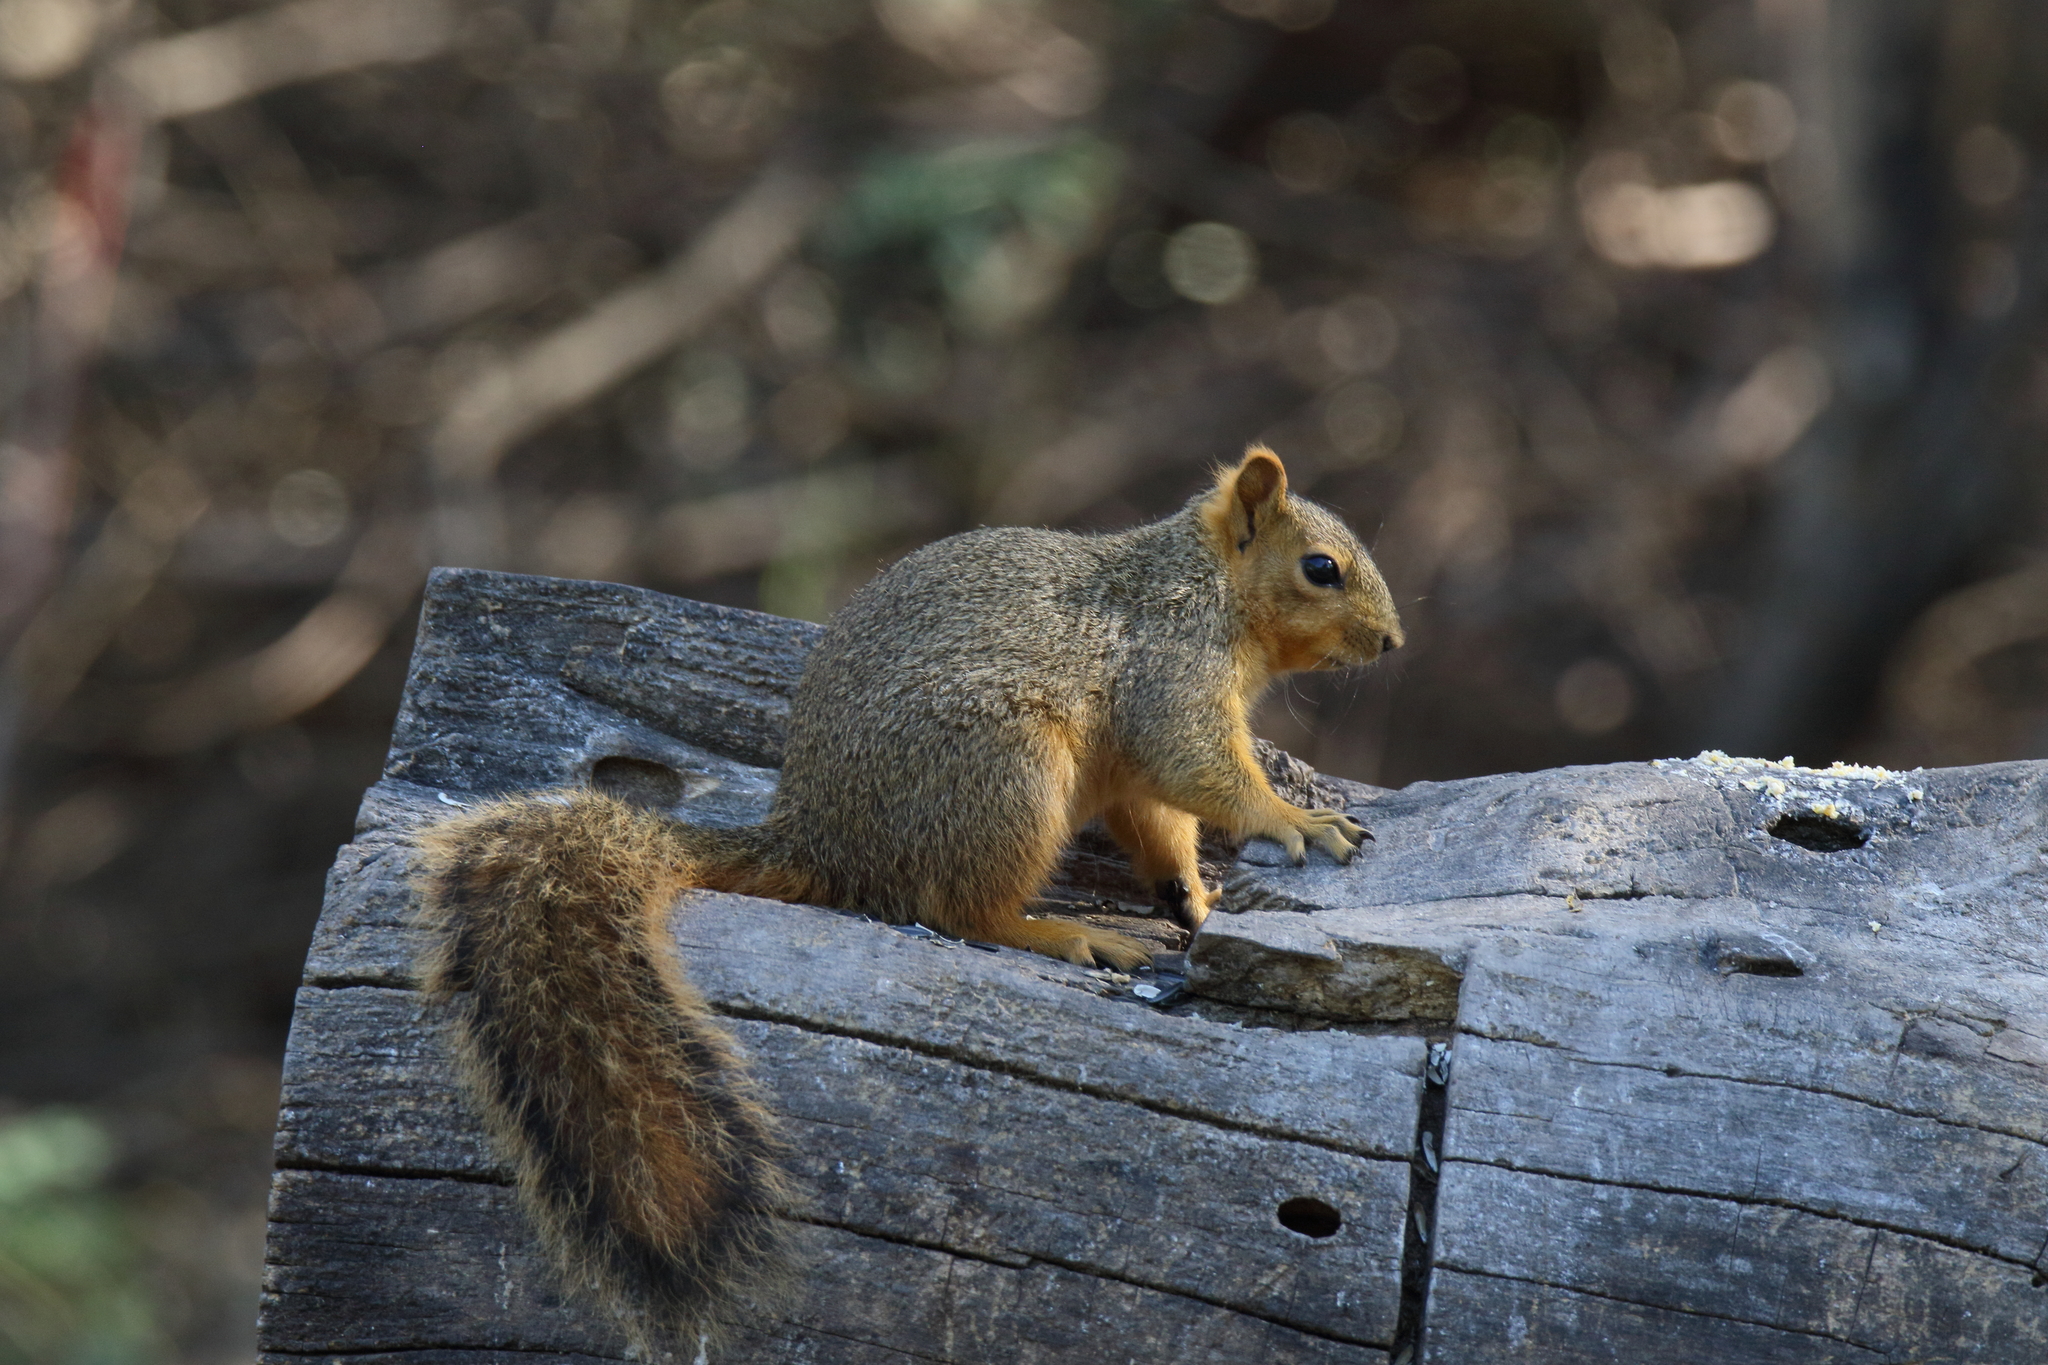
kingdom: Animalia
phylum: Chordata
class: Mammalia
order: Rodentia
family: Sciuridae
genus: Sciurus
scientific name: Sciurus niger
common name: Fox squirrel
